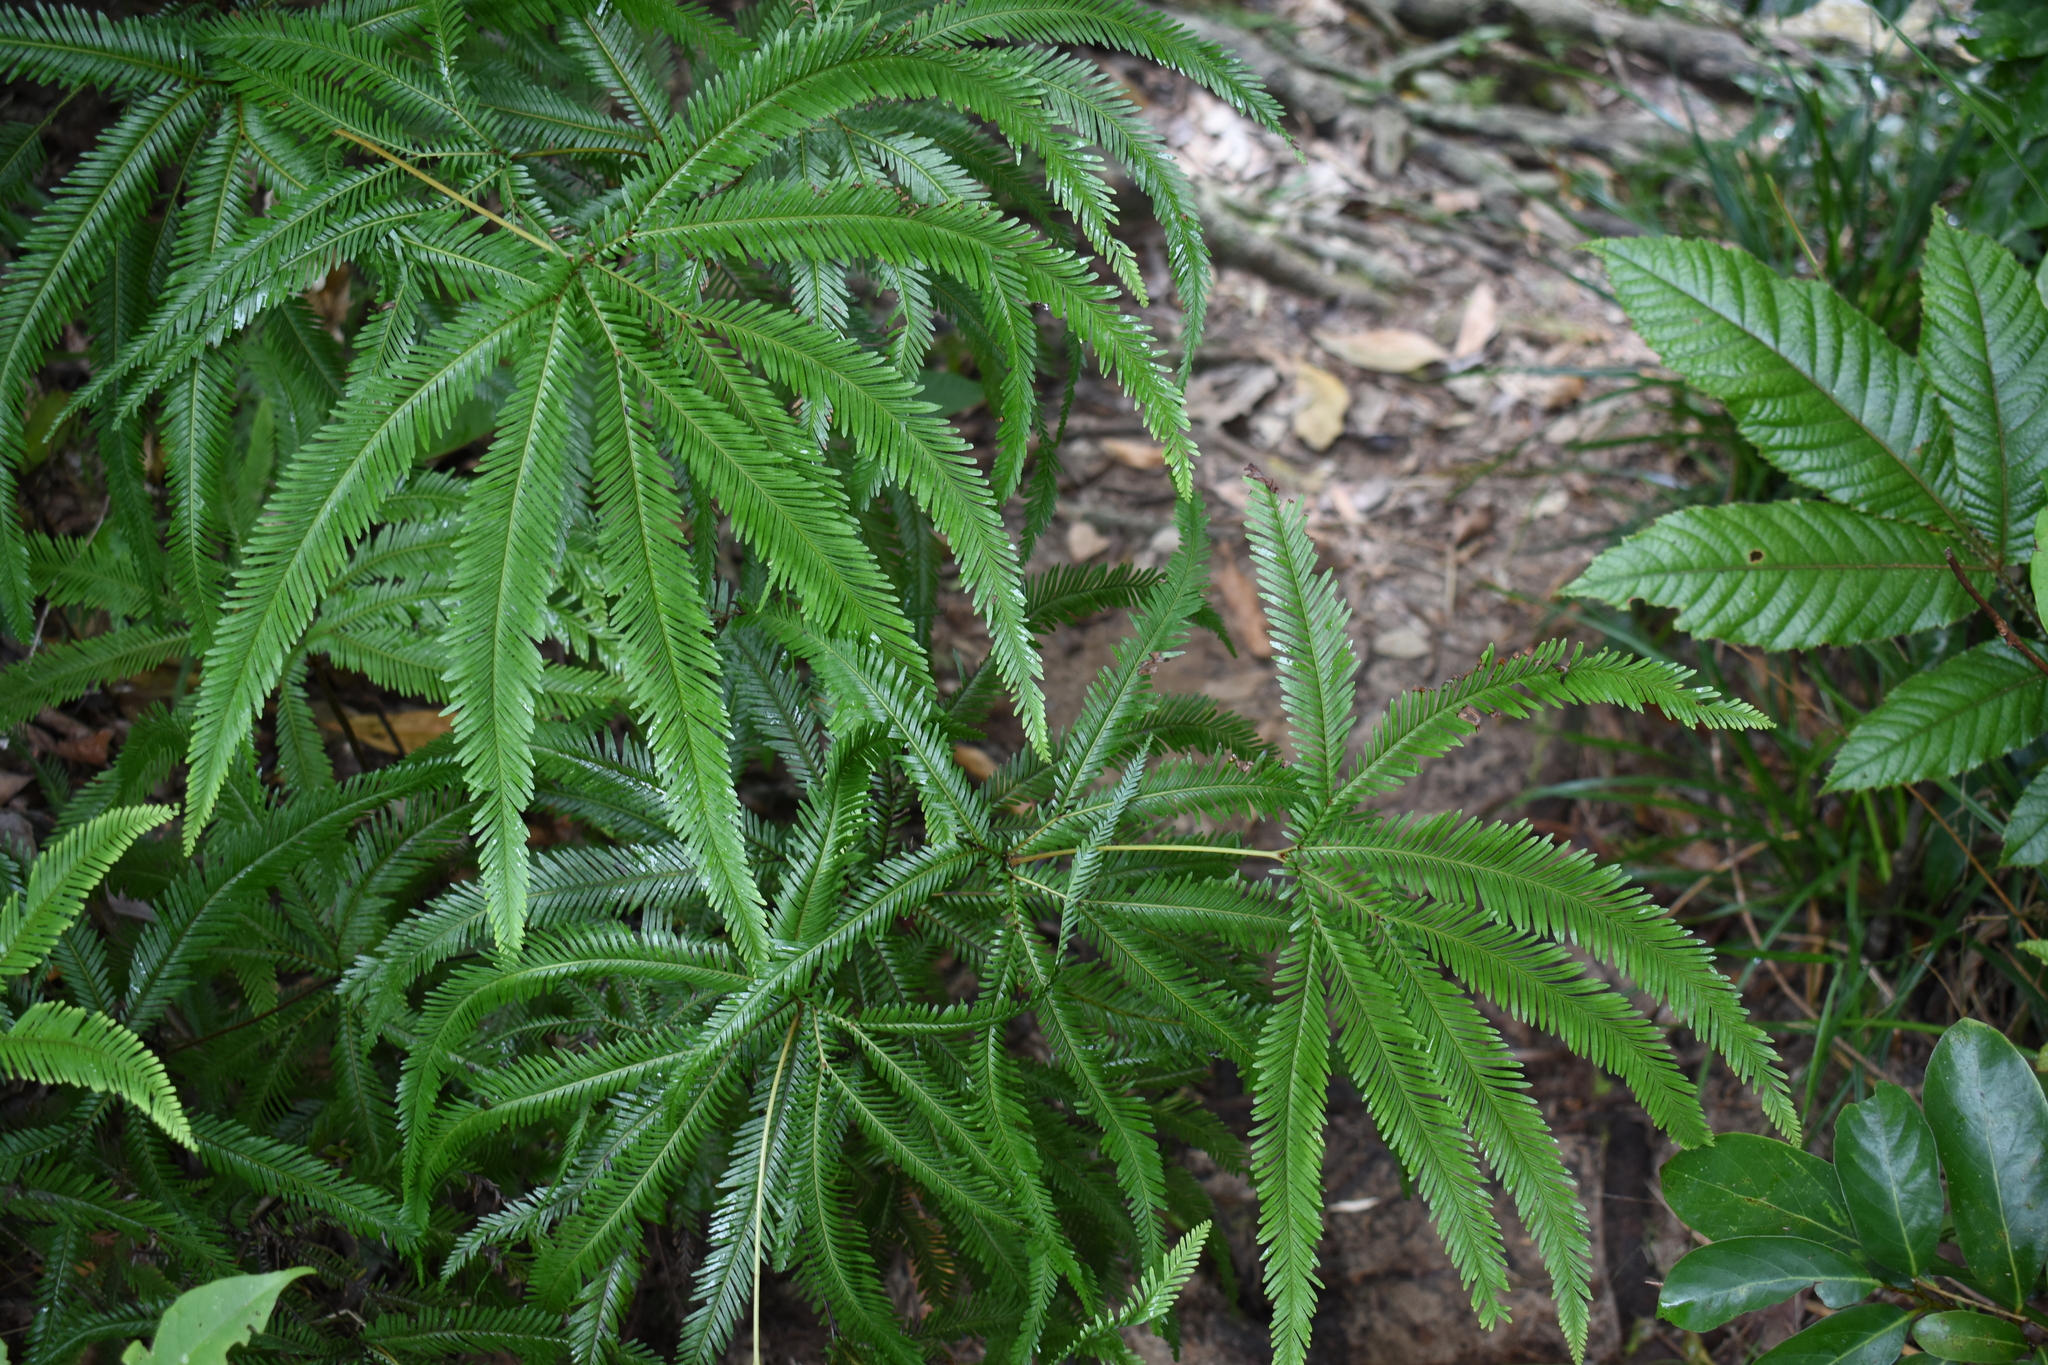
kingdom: Plantae
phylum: Tracheophyta
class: Polypodiopsida
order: Gleicheniales
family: Gleicheniaceae
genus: Sticherus
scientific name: Sticherus flabellatus
